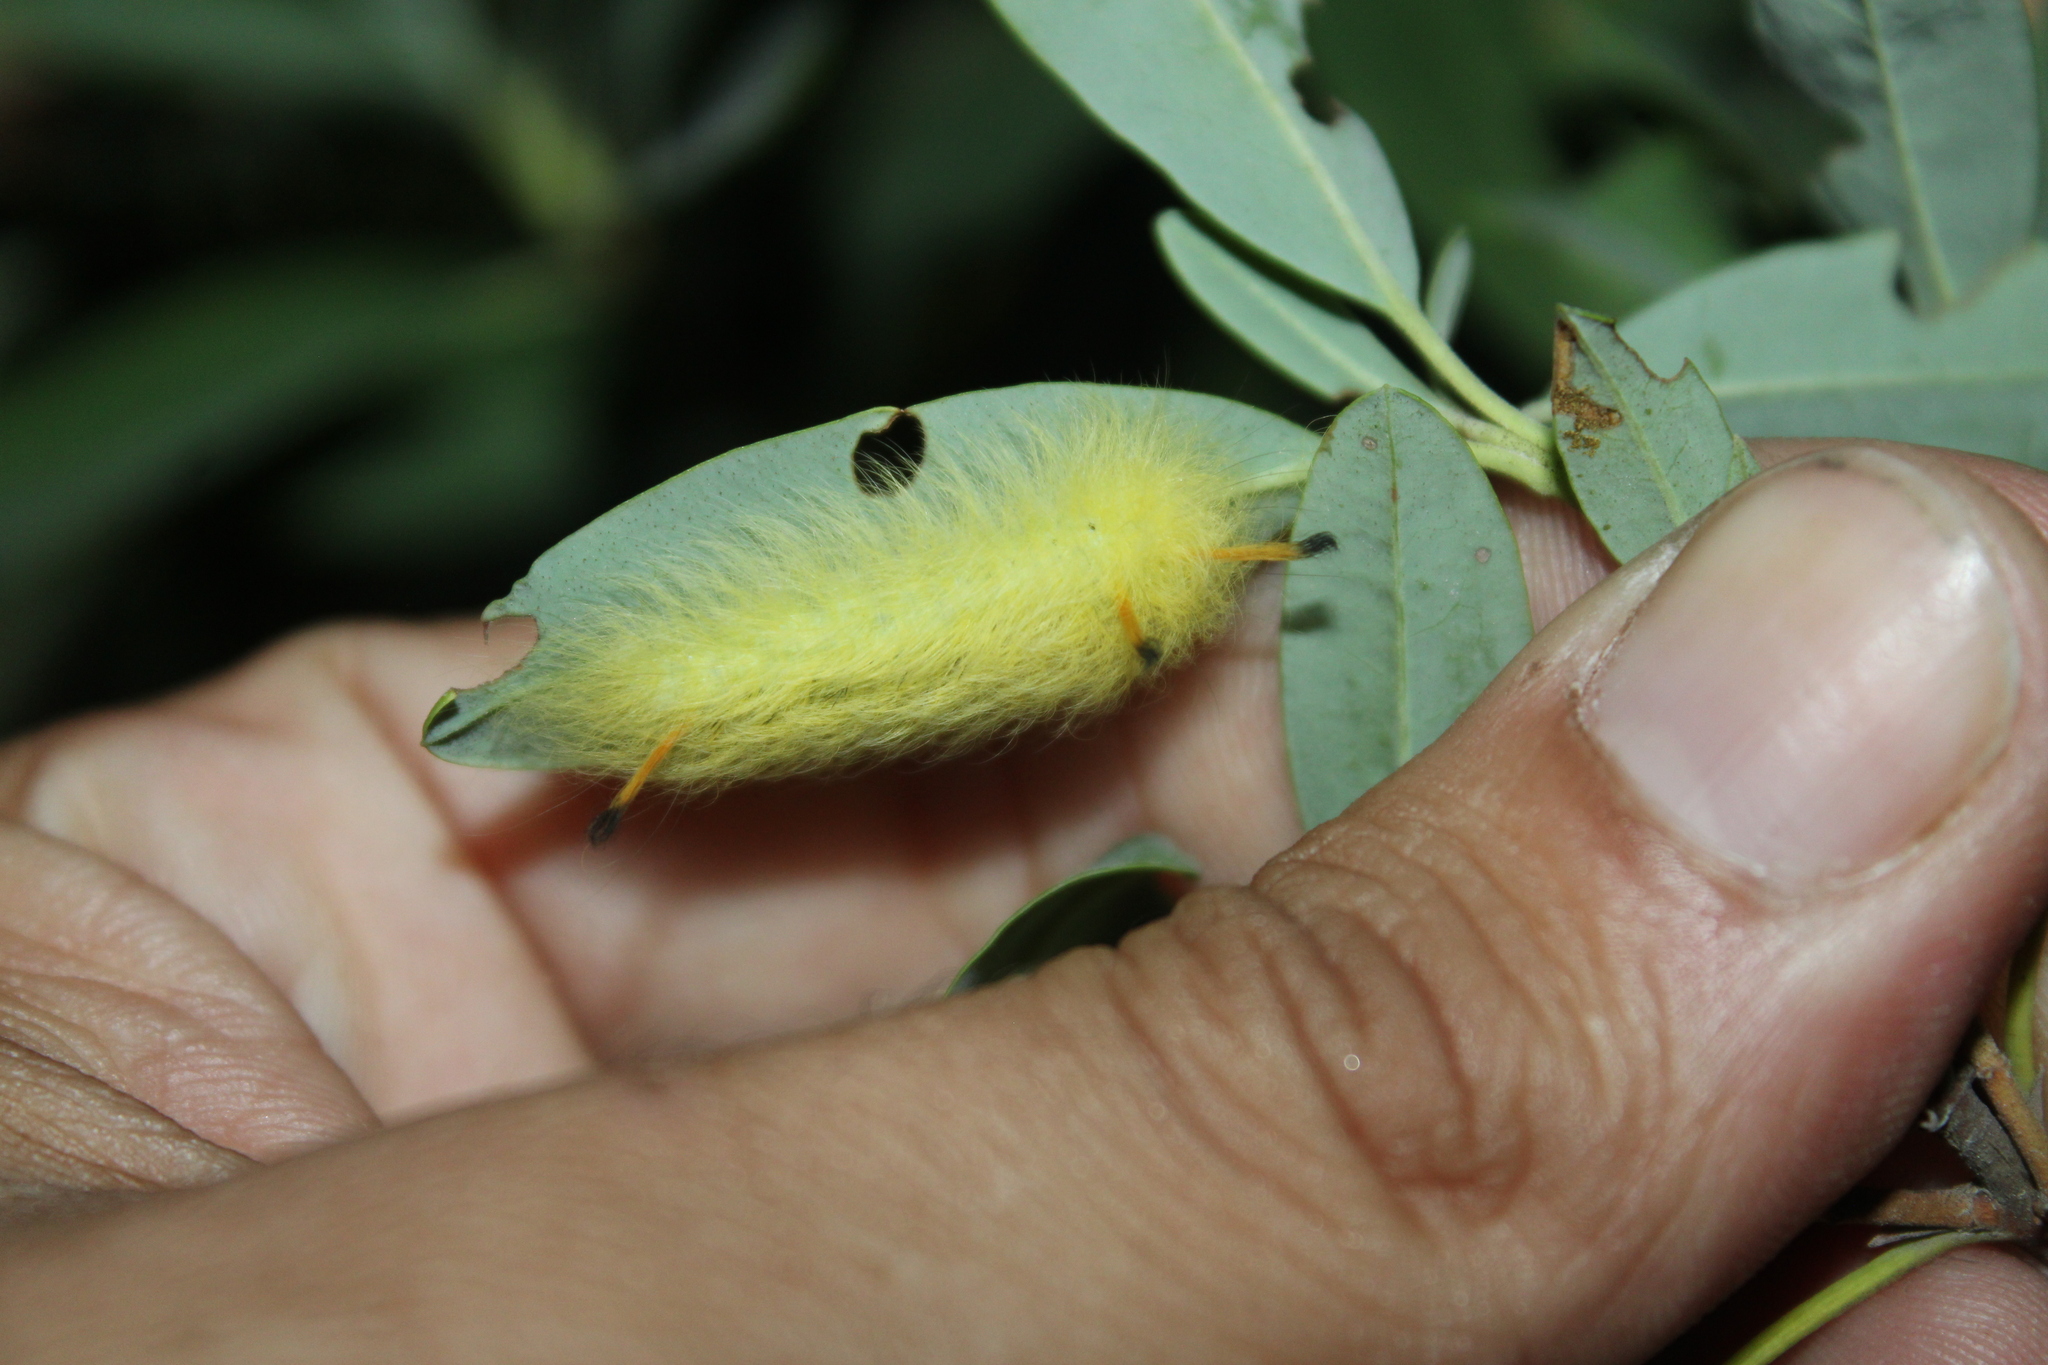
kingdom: Animalia
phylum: Arthropoda
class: Insecta
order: Lepidoptera
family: Apatelodidae
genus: Hygrochroa
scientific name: Hygrochroa Apatelodes torrefacta
